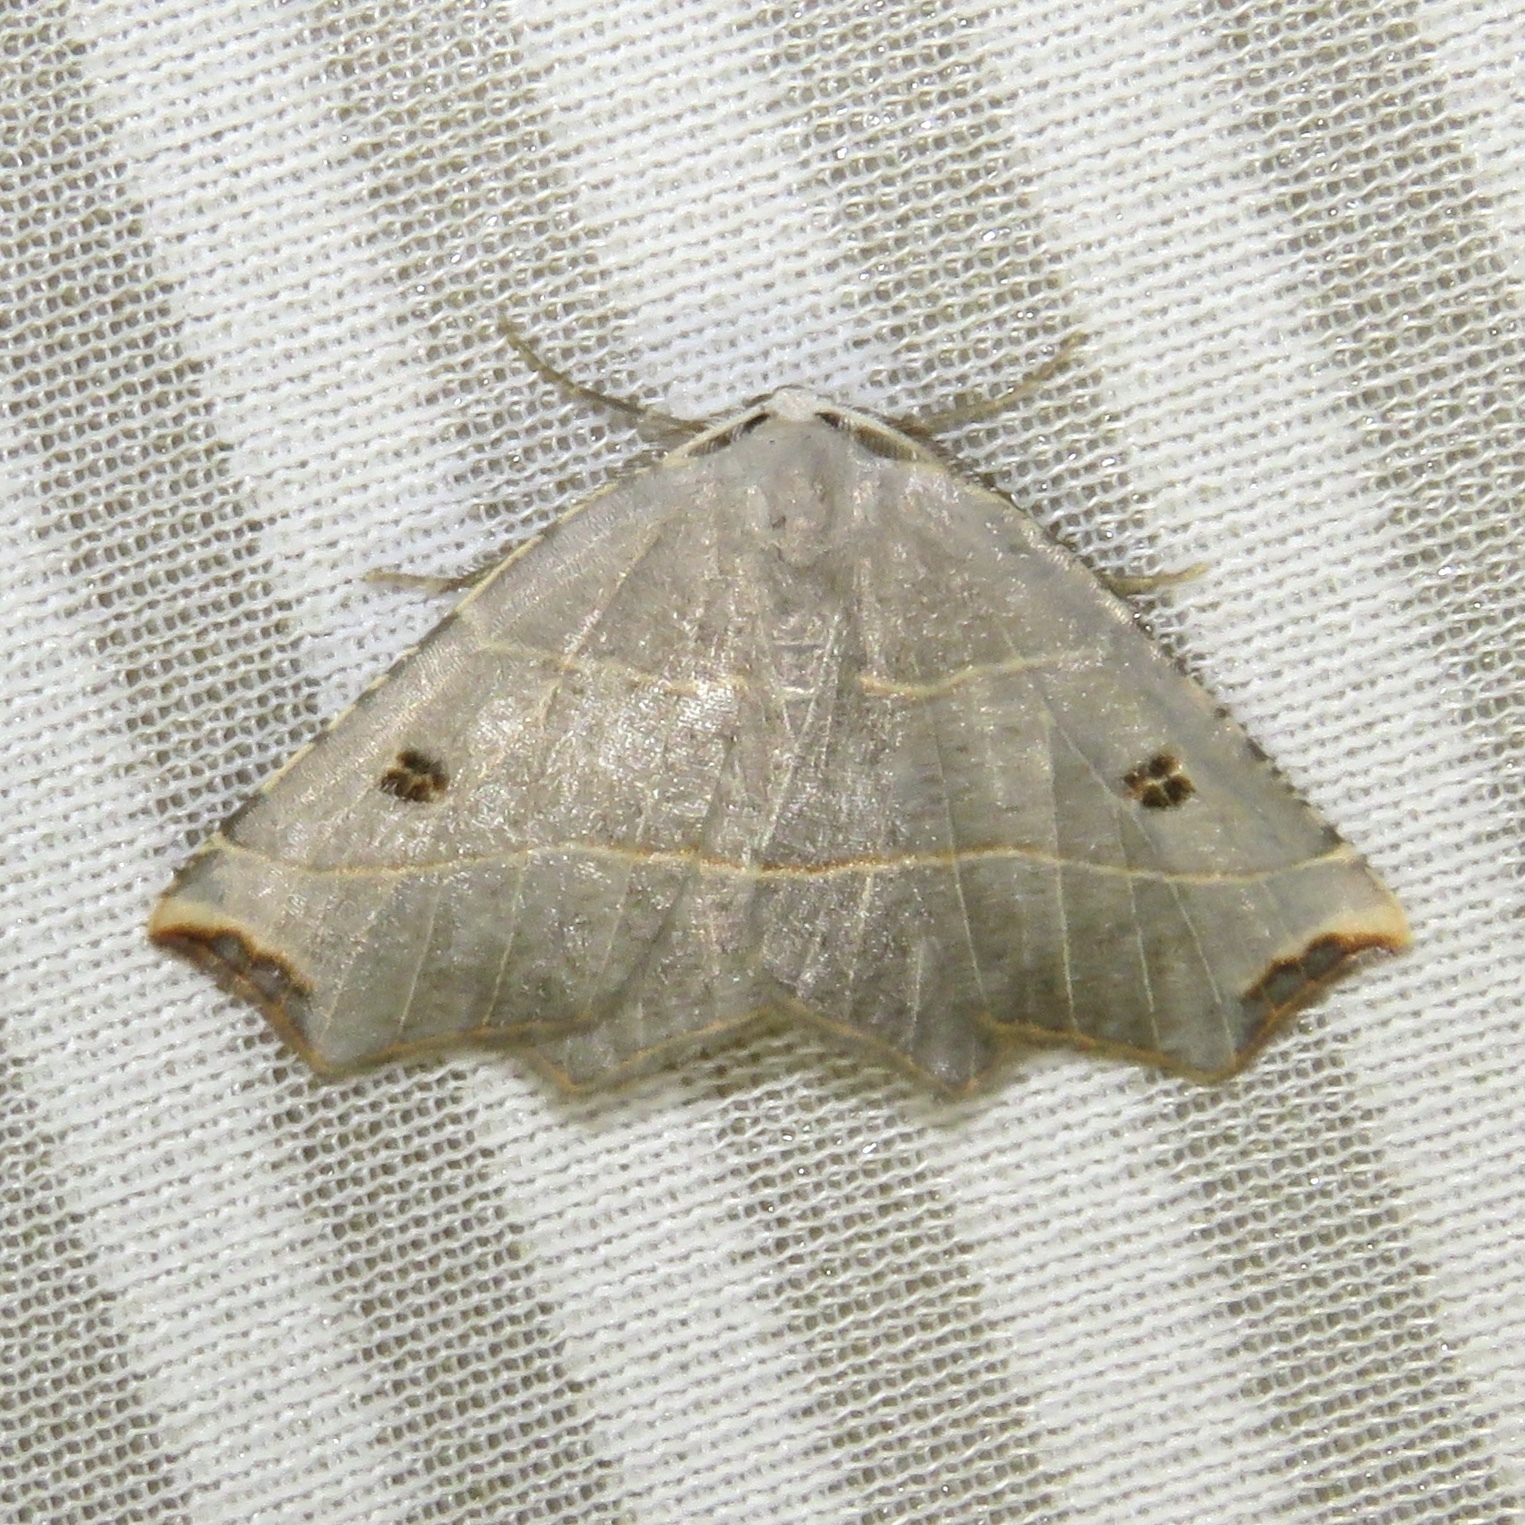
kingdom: Animalia
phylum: Arthropoda
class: Insecta
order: Lepidoptera
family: Geometridae
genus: Metanema
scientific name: Metanema inatomaria
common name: Pale metanema
